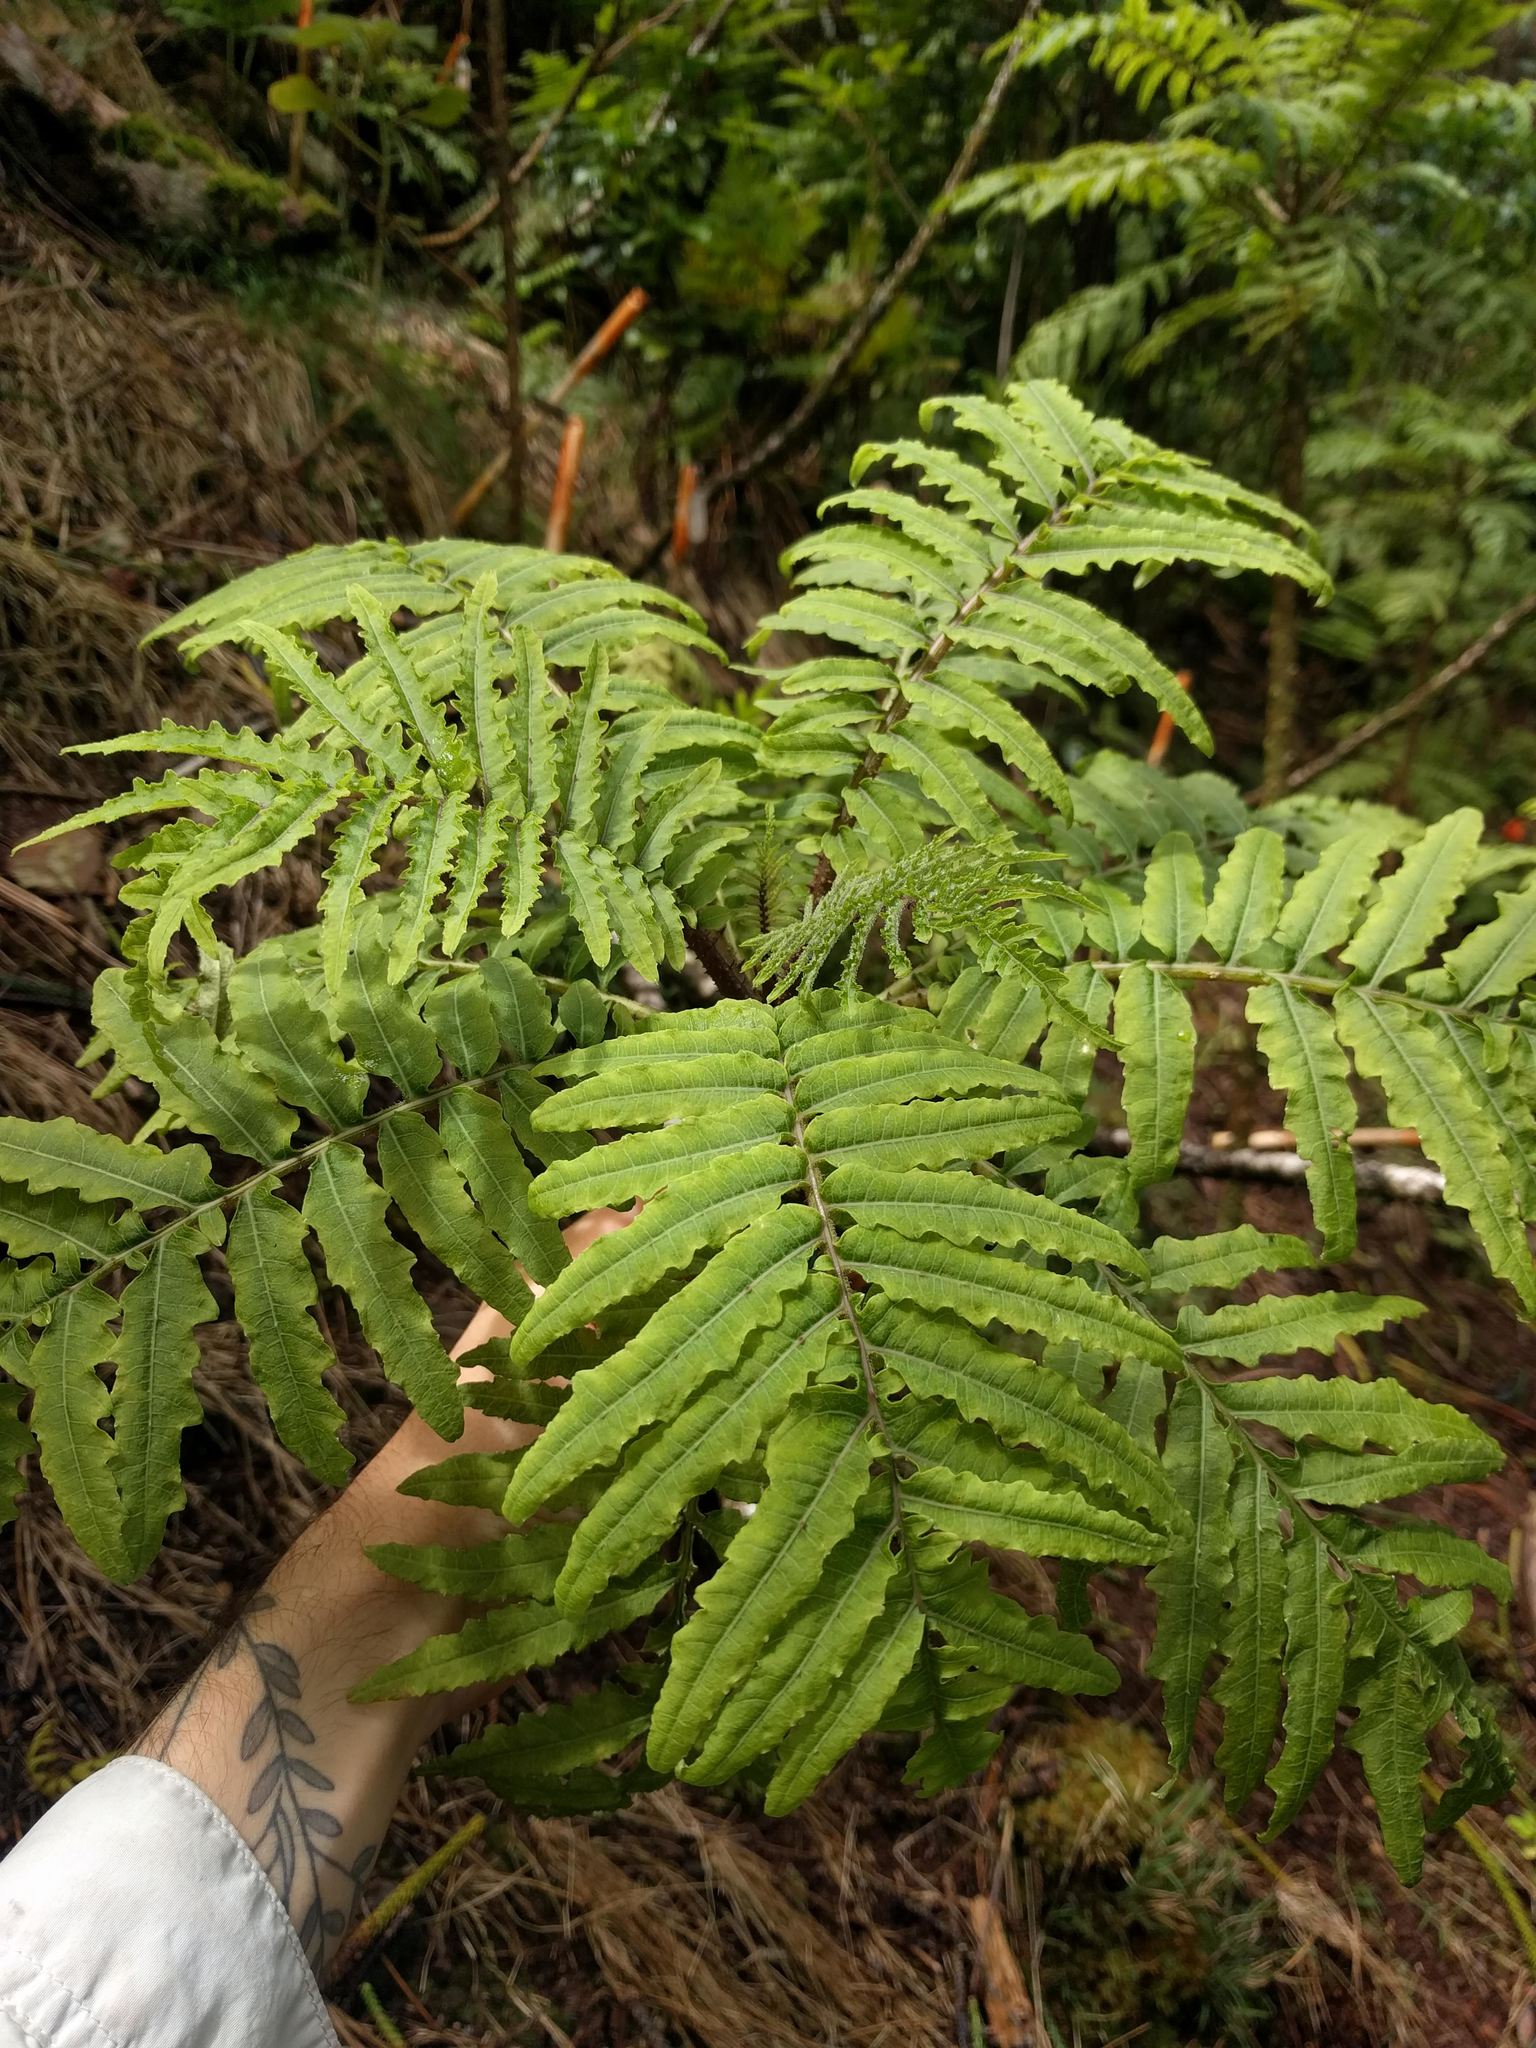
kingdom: Plantae
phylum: Tracheophyta
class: Magnoliopsida
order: Asterales
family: Campanulaceae
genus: Cyanea
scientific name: Cyanea grimesiana
